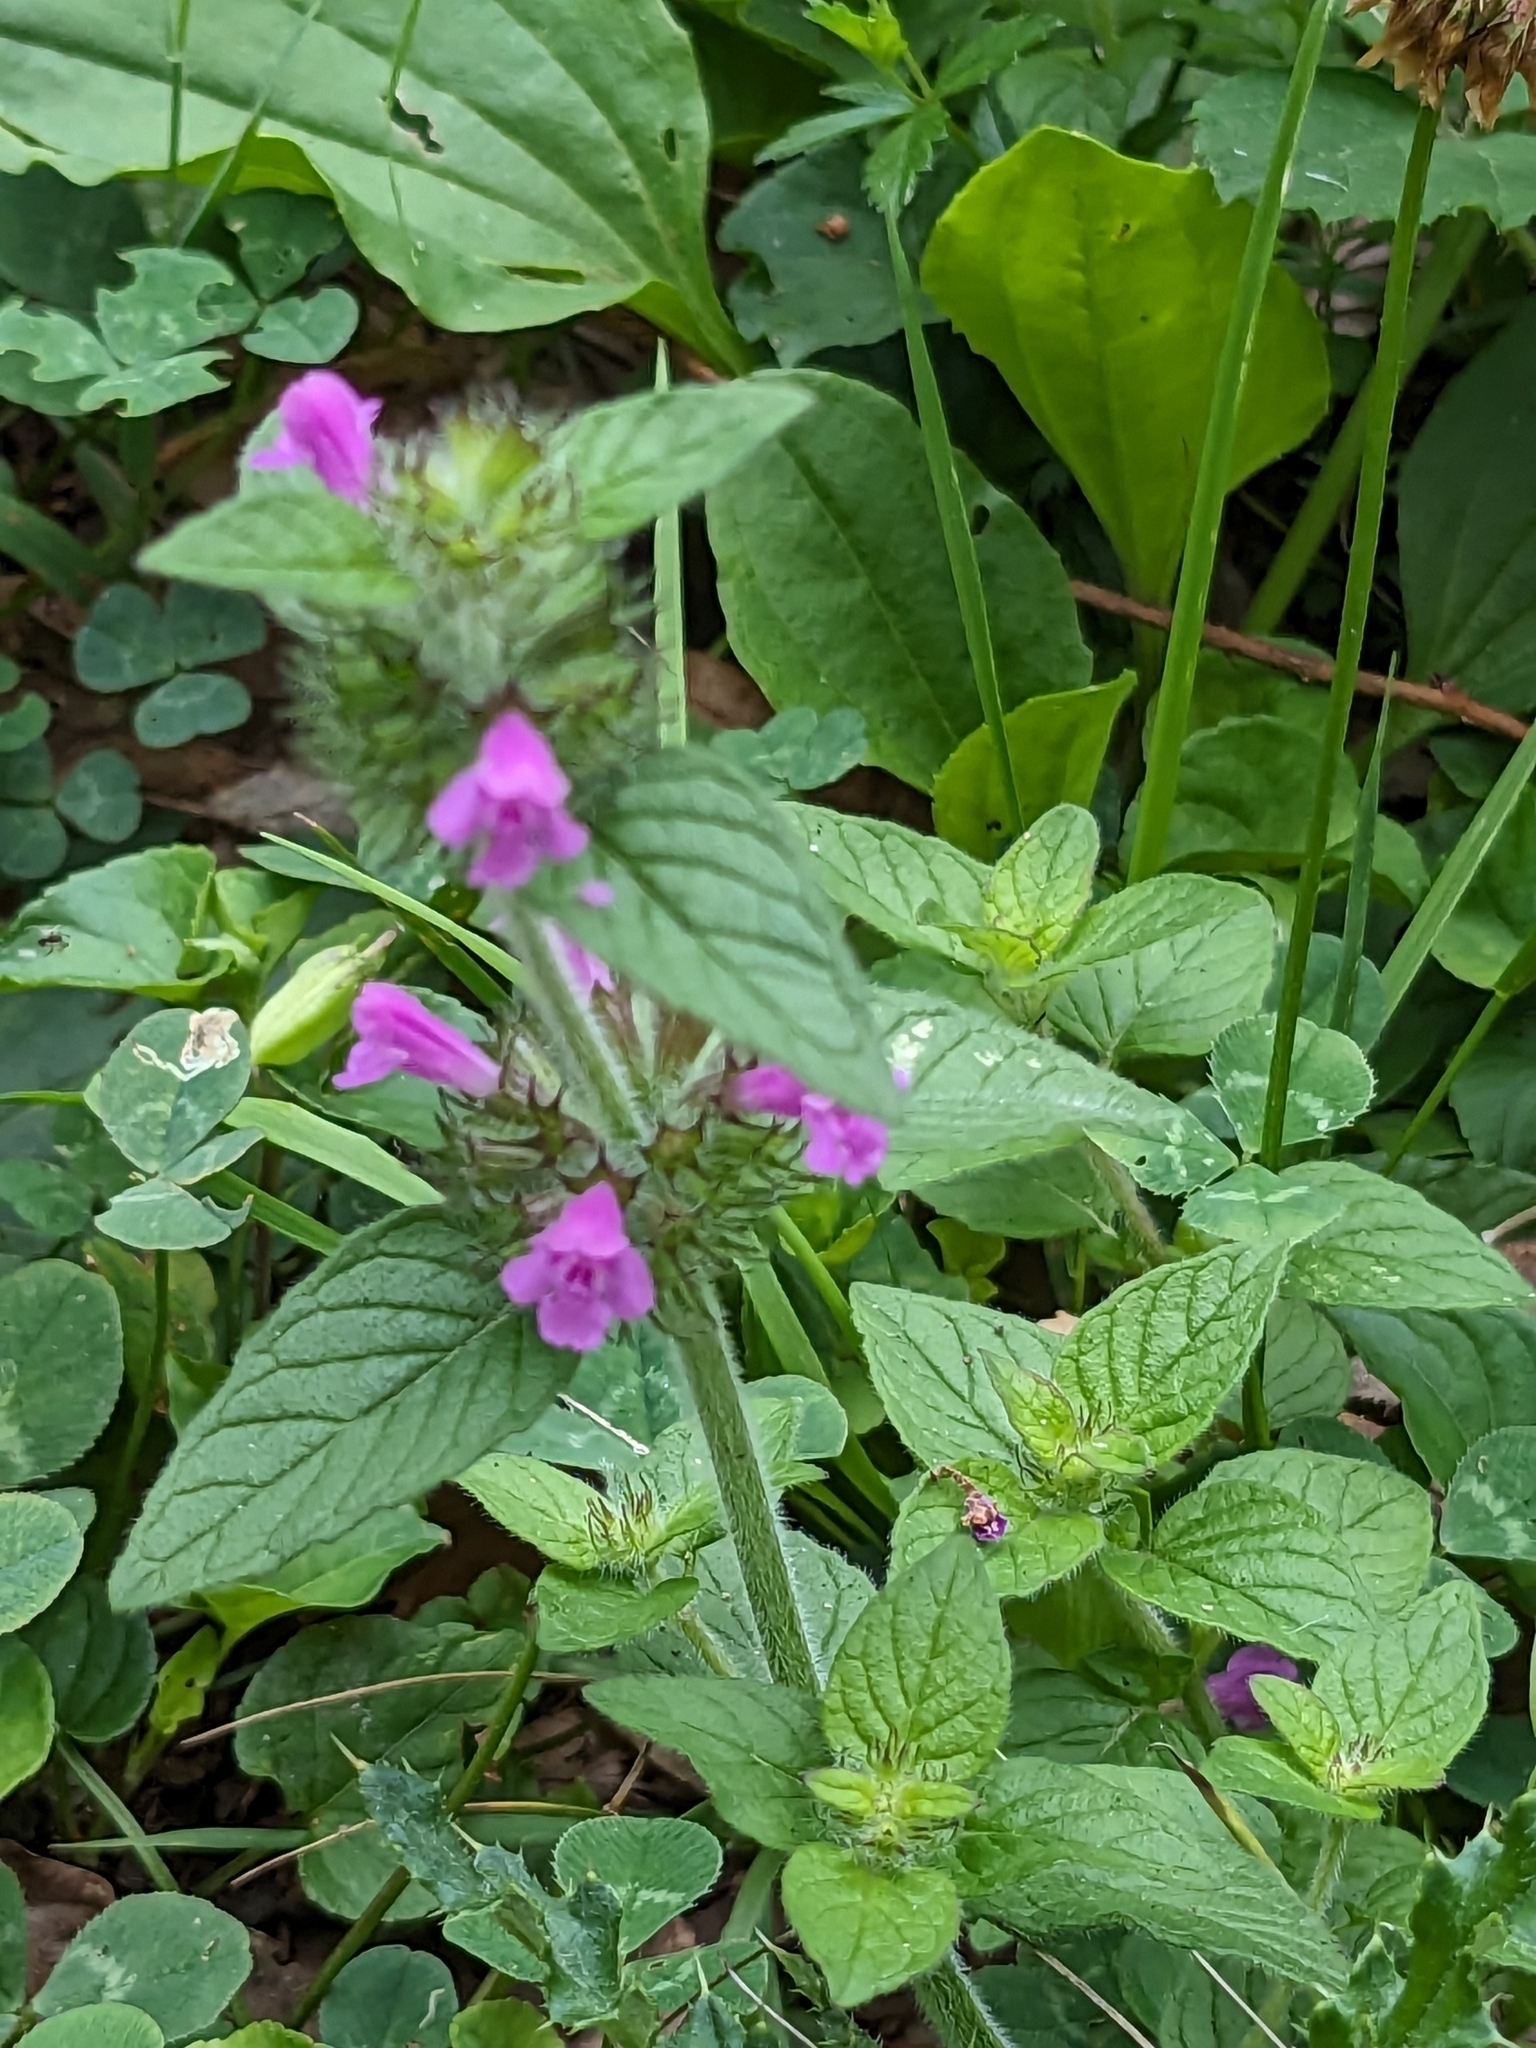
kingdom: Plantae
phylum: Tracheophyta
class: Magnoliopsida
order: Lamiales
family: Lamiaceae
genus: Clinopodium
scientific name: Clinopodium vulgare
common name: Wild basil
